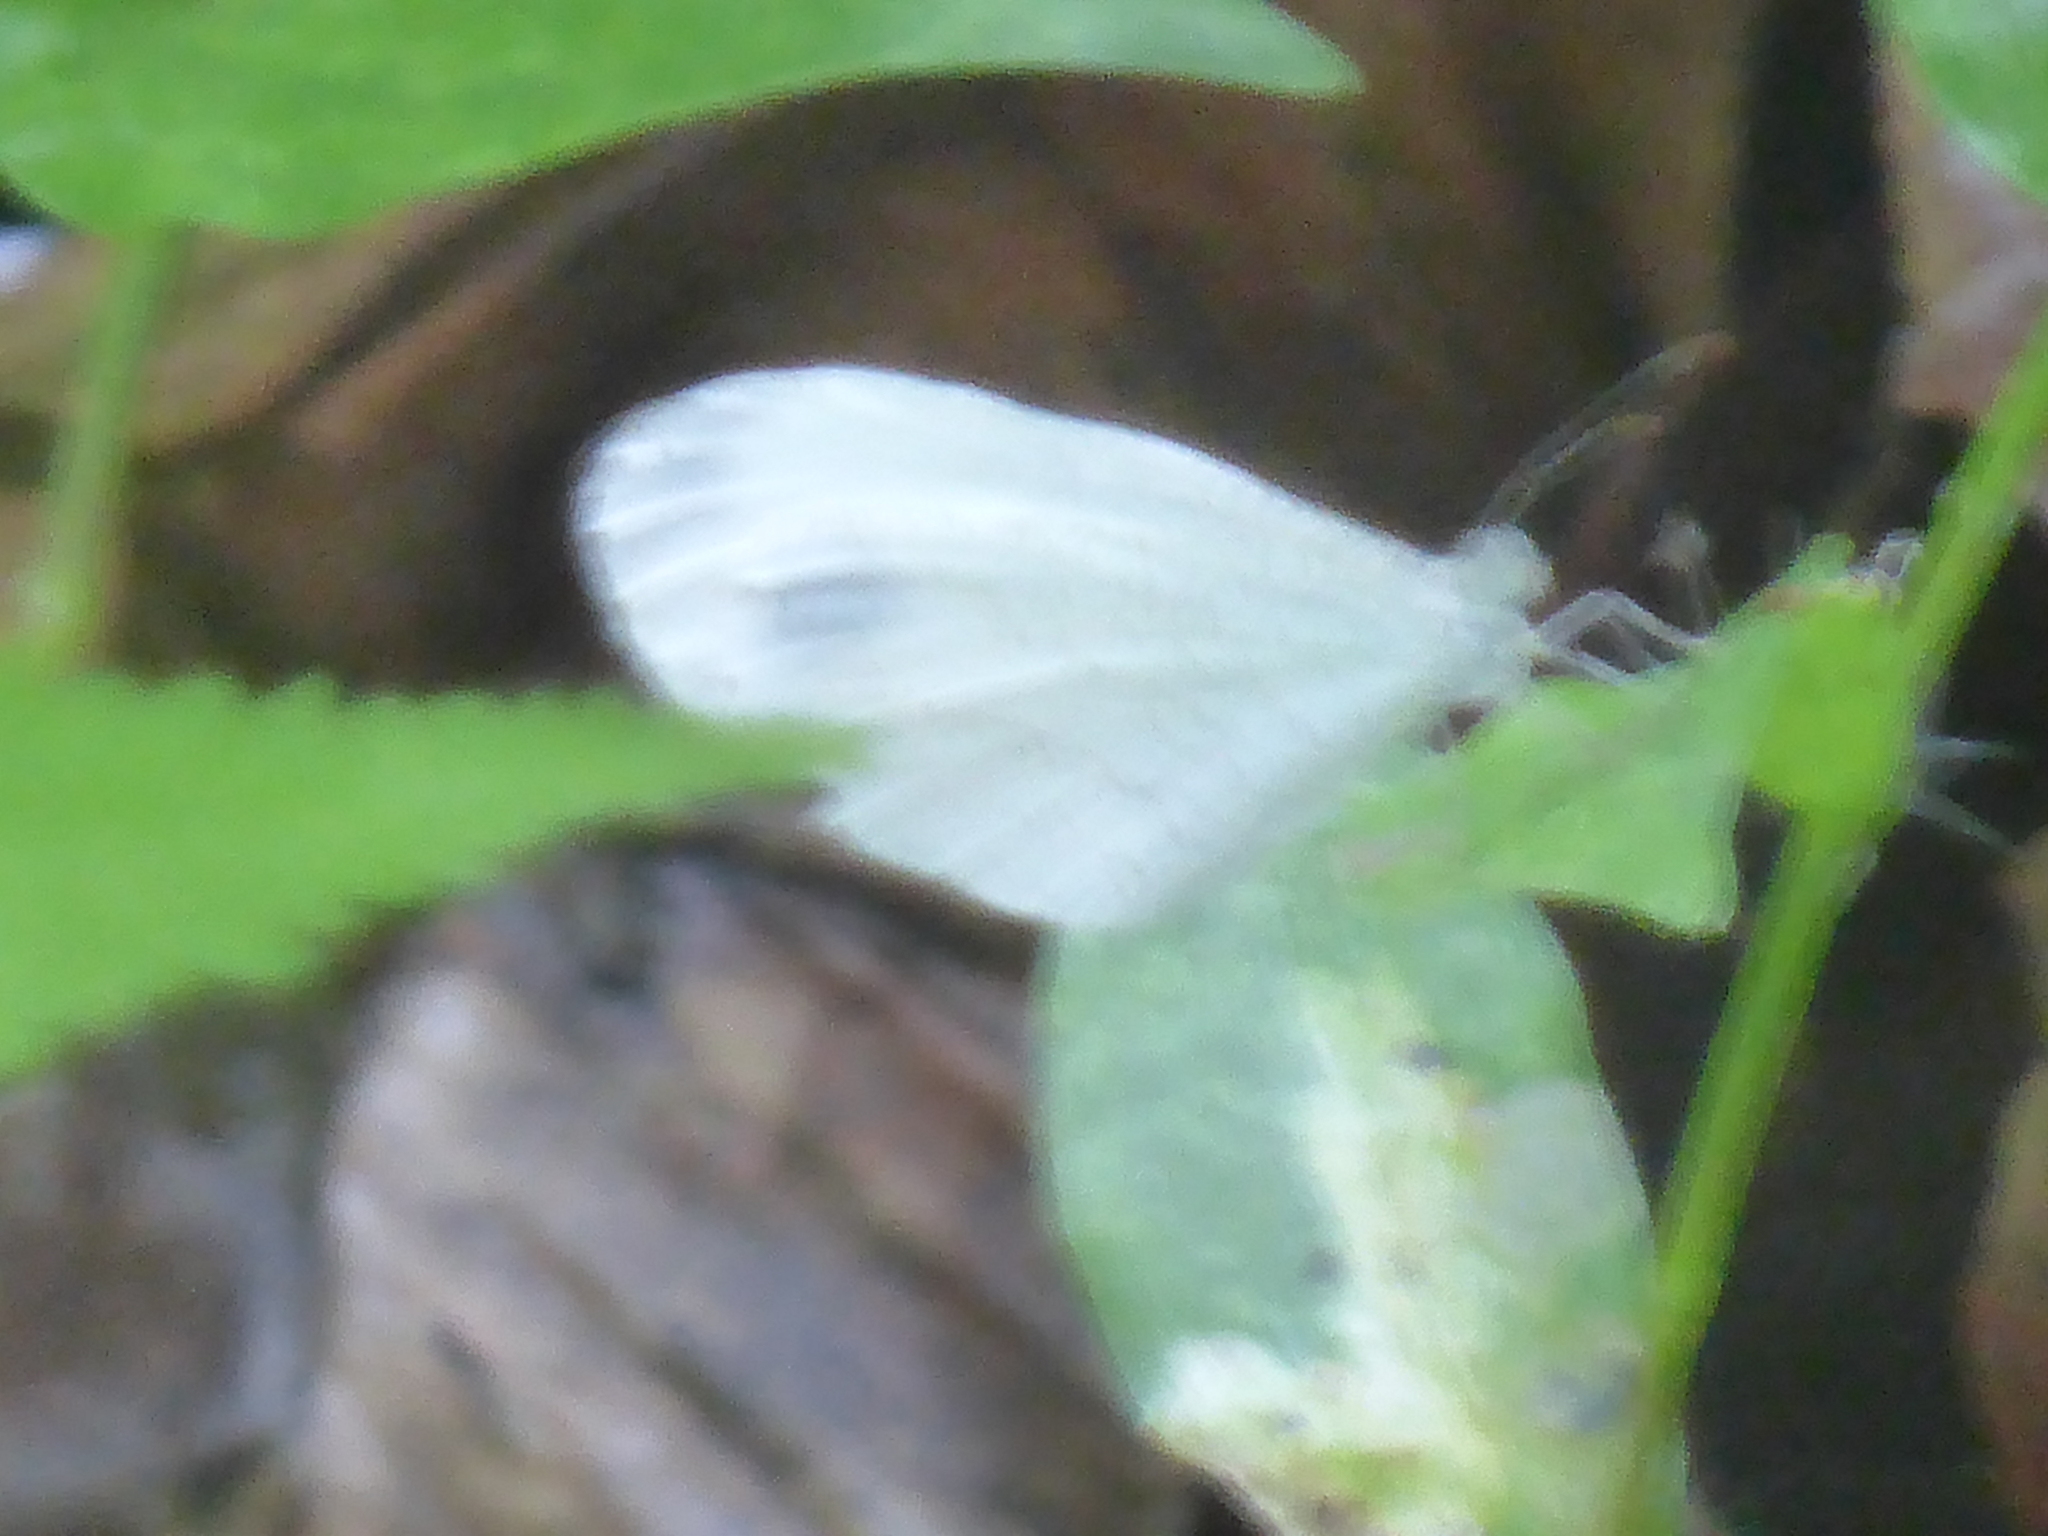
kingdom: Animalia
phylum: Arthropoda
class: Insecta
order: Lepidoptera
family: Pieridae
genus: Leptosia
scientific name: Leptosia nina
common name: Psyche
